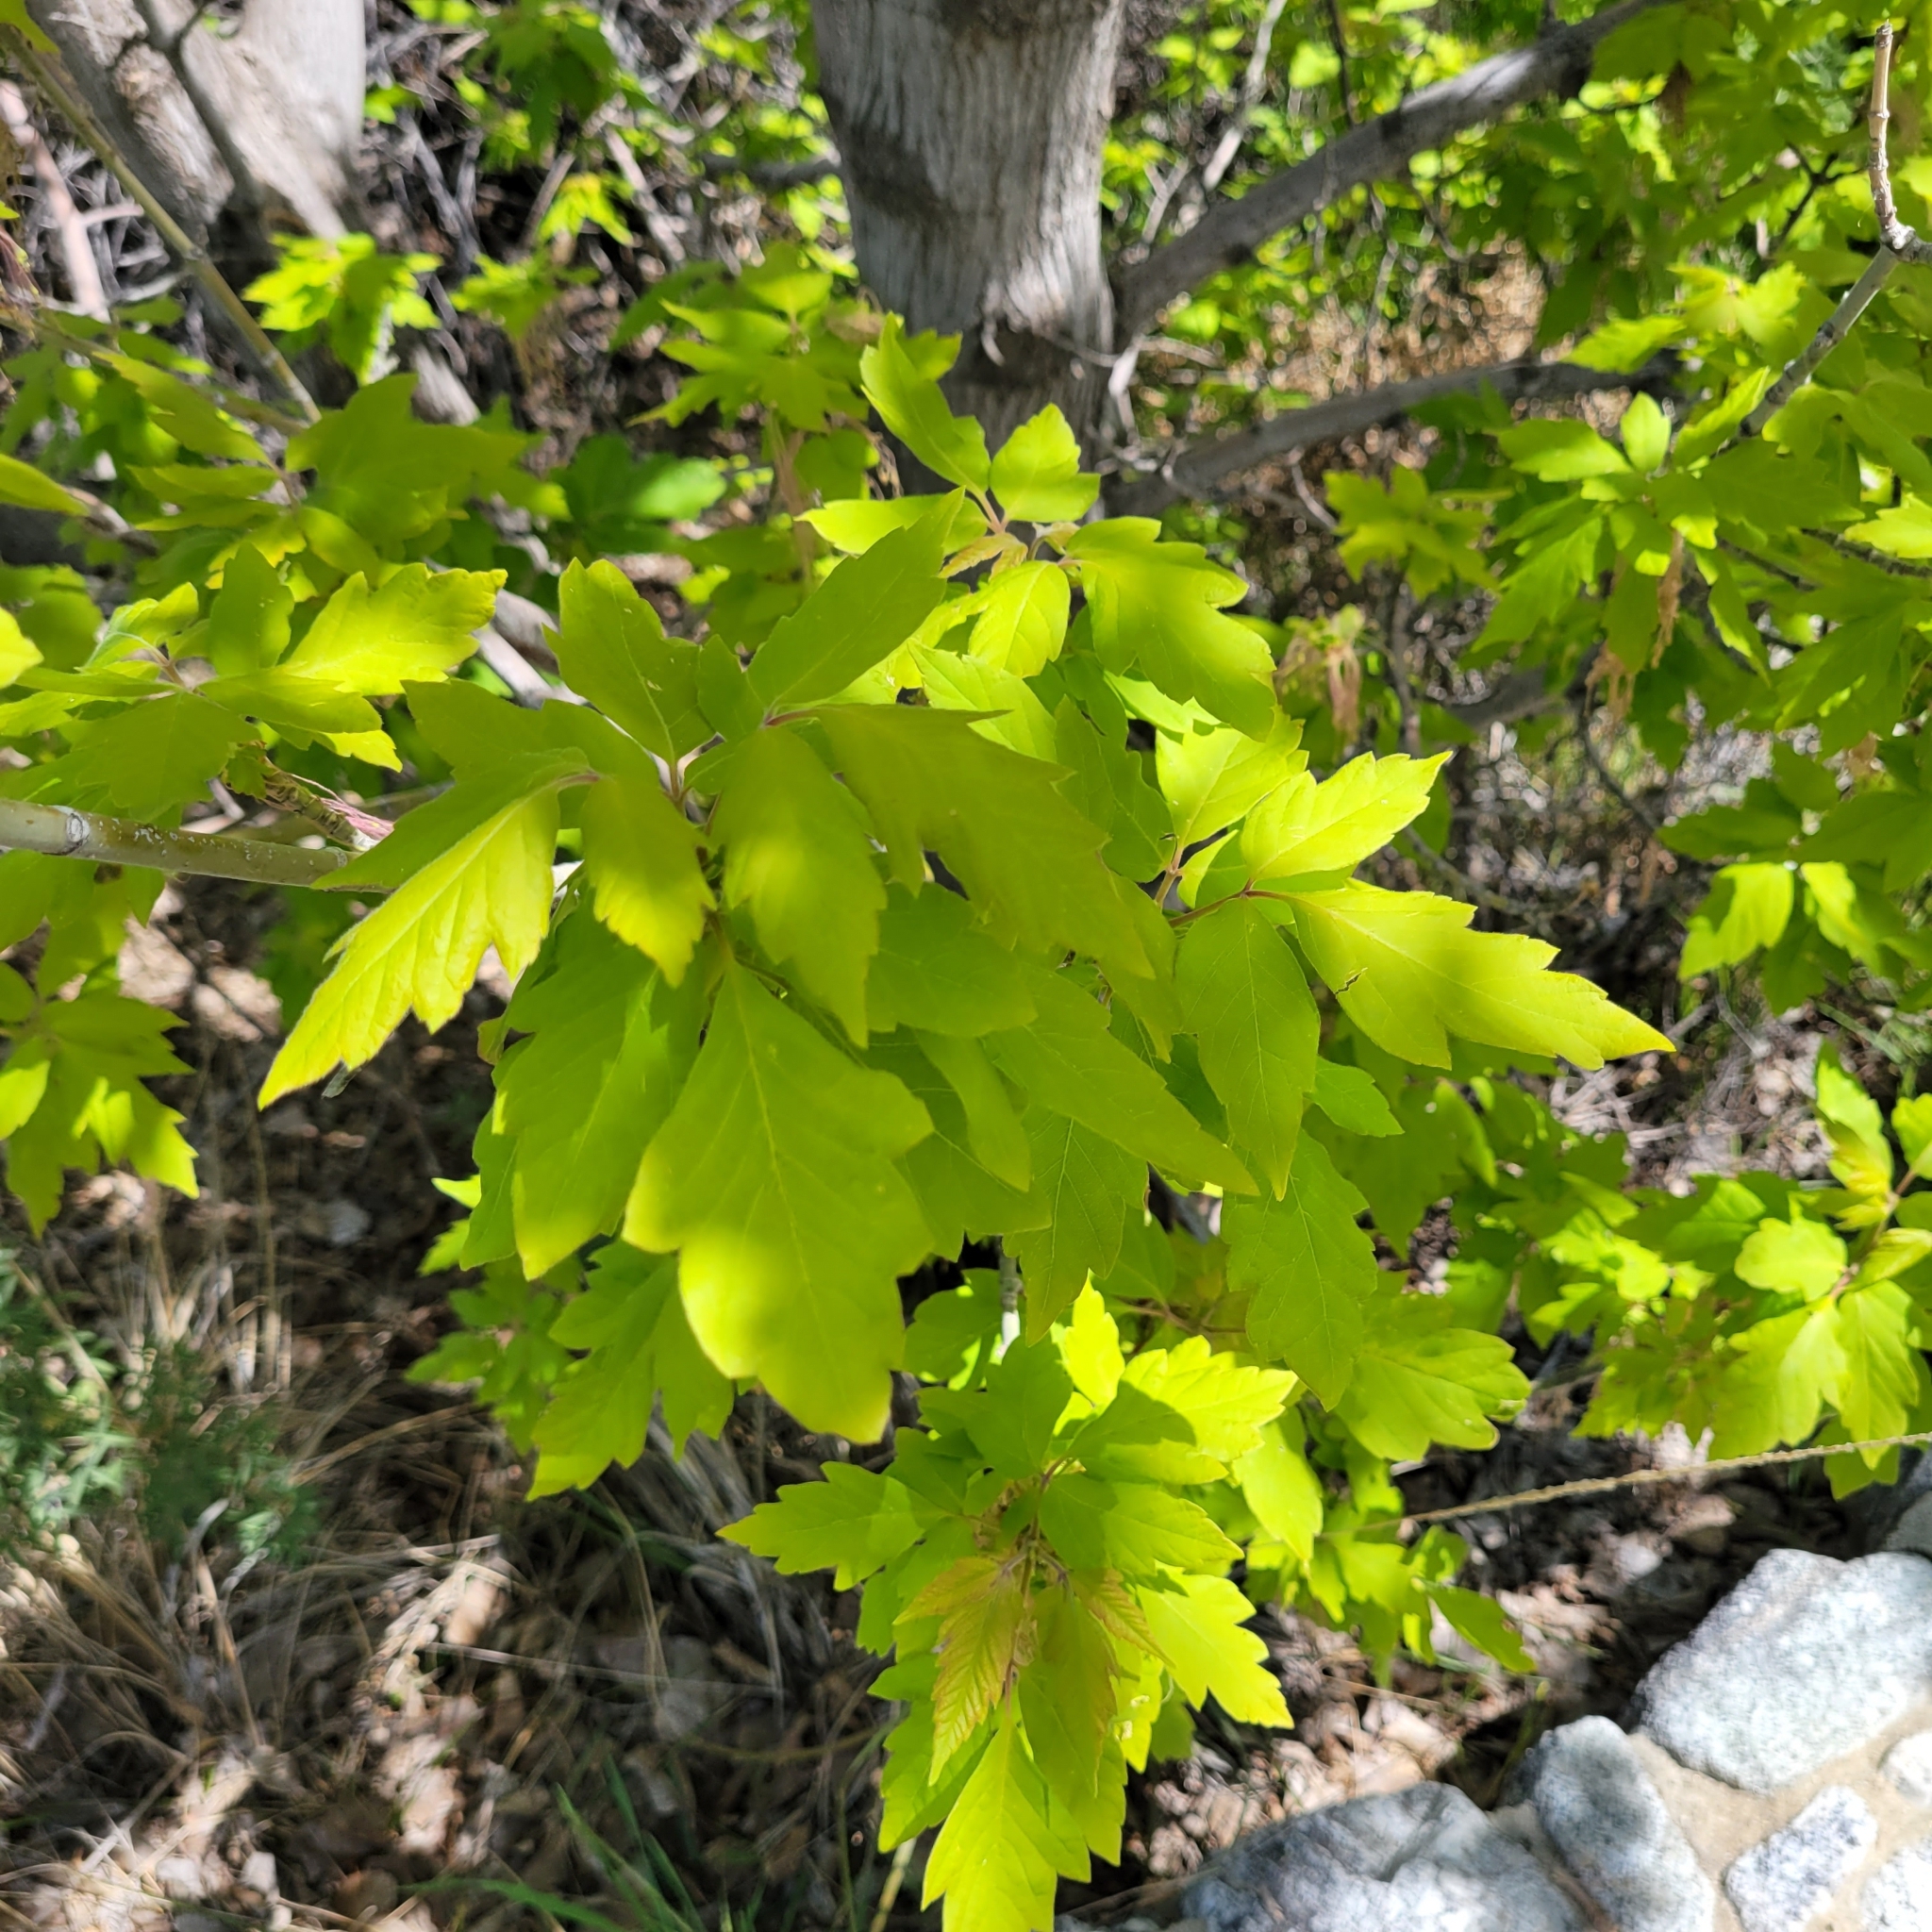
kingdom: Plantae
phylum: Tracheophyta
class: Magnoliopsida
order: Sapindales
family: Sapindaceae
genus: Acer
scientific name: Acer negundo
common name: Ashleaf maple
